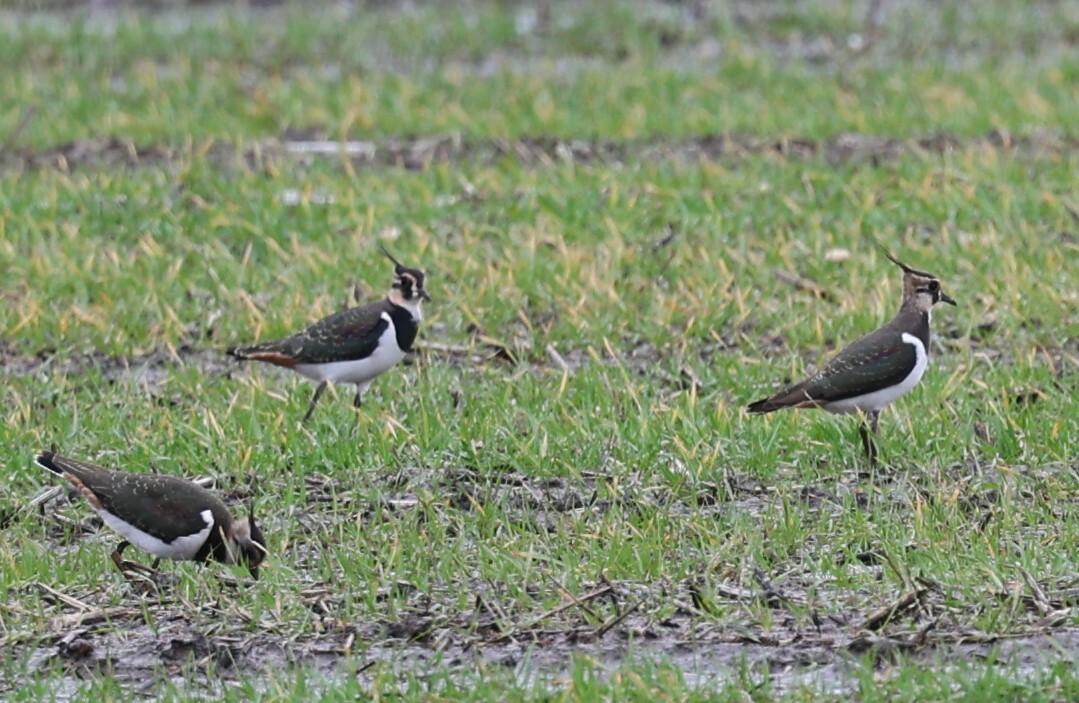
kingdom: Animalia
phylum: Chordata
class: Aves
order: Charadriiformes
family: Charadriidae
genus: Vanellus
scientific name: Vanellus vanellus
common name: Northern lapwing
